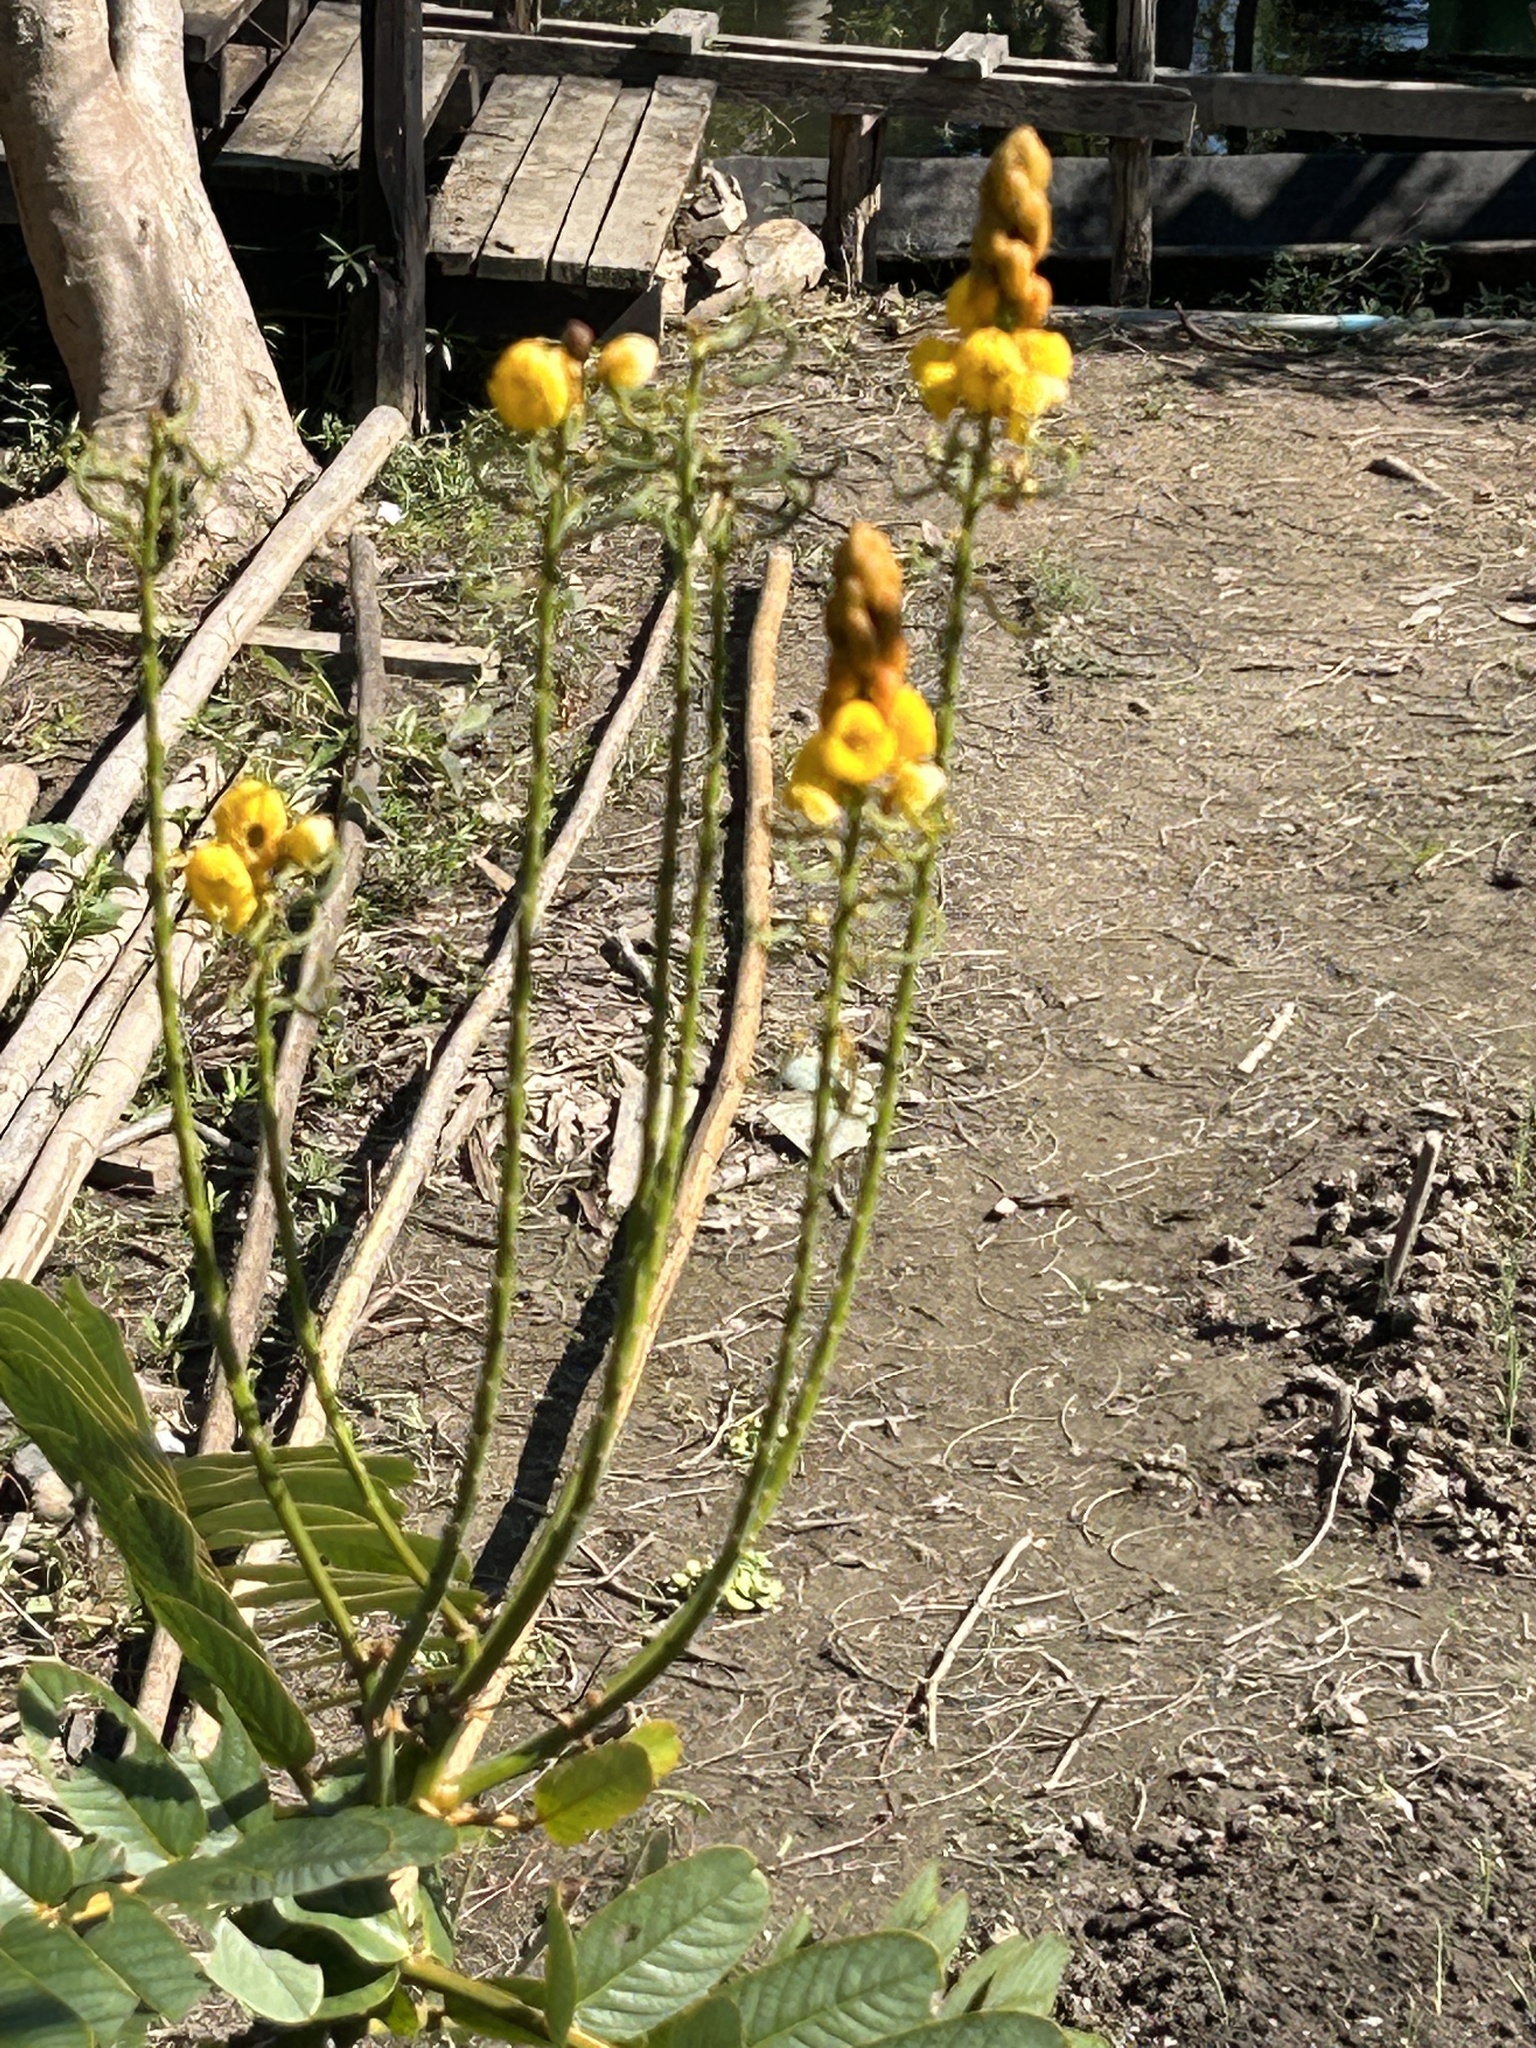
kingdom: Plantae
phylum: Tracheophyta
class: Magnoliopsida
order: Fabales
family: Fabaceae
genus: Senna
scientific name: Senna alata
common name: Emperor's candlesticks
